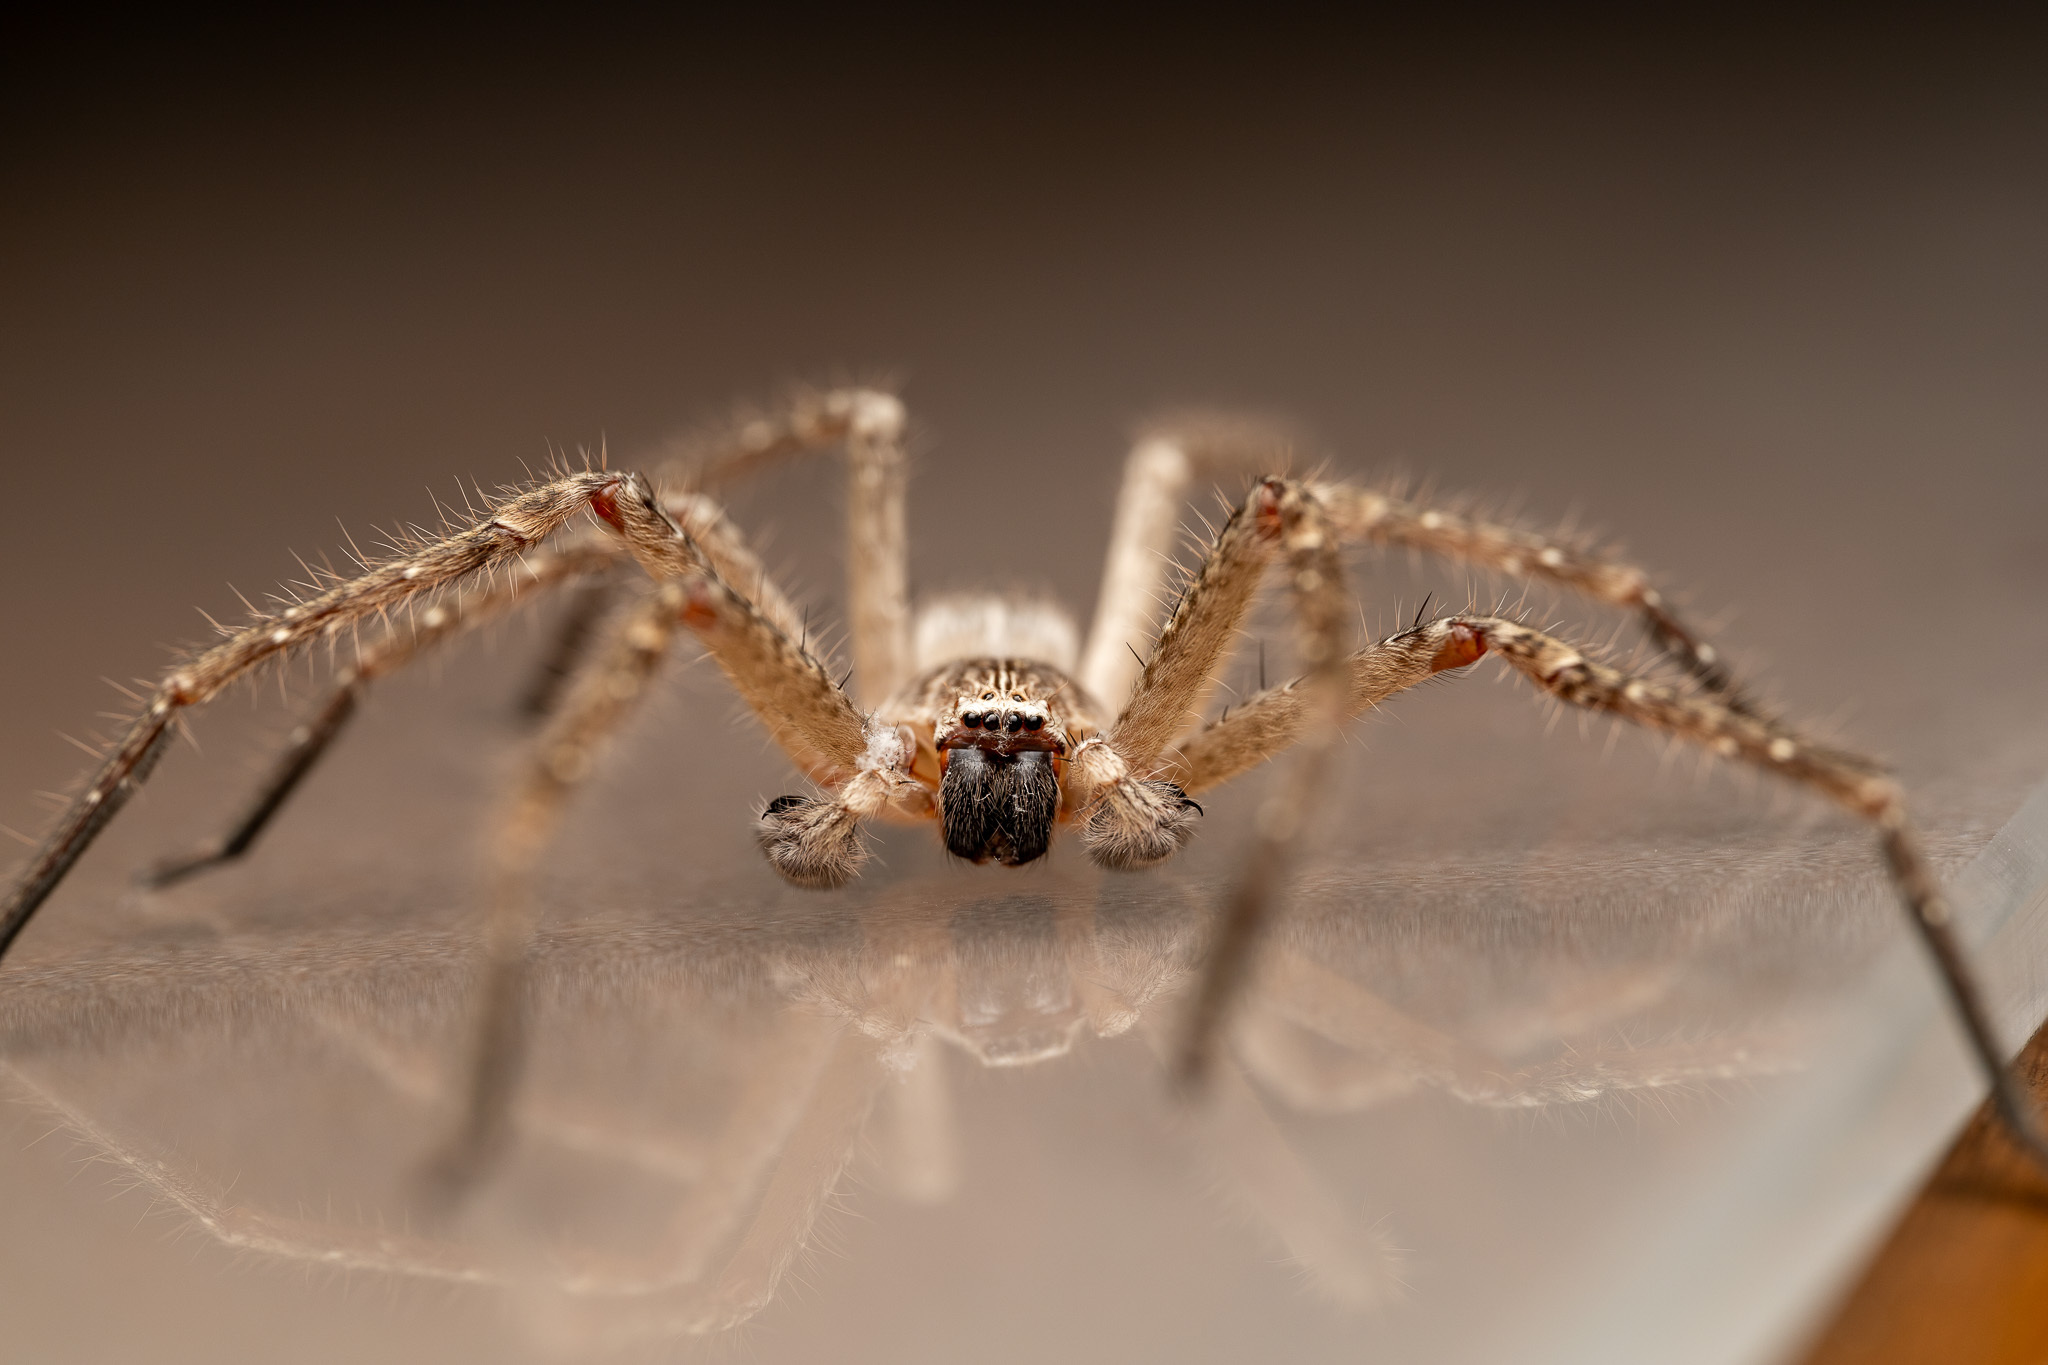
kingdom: Animalia
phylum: Arthropoda
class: Arachnida
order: Araneae
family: Sparassidae
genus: Olios
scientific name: Olios giganteus
